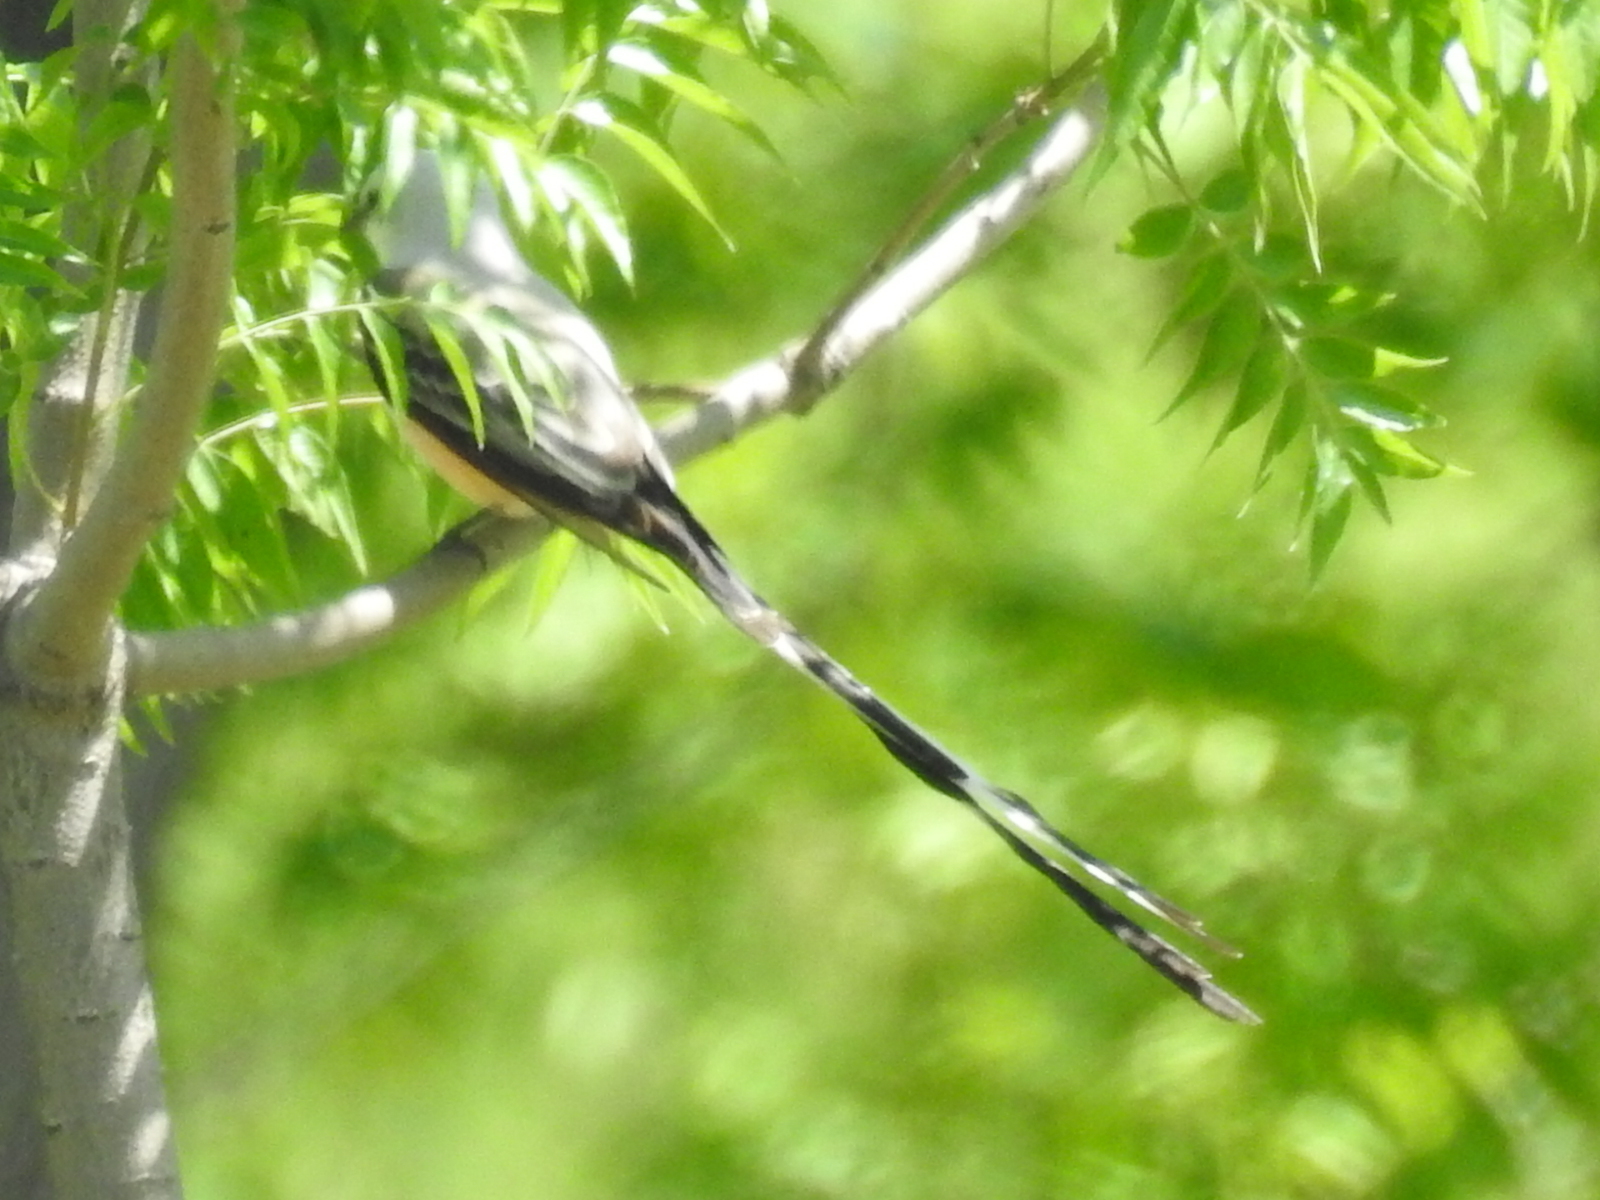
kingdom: Animalia
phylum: Chordata
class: Aves
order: Passeriformes
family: Tyrannidae
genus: Tyrannus
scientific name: Tyrannus forficatus
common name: Scissor-tailed flycatcher
